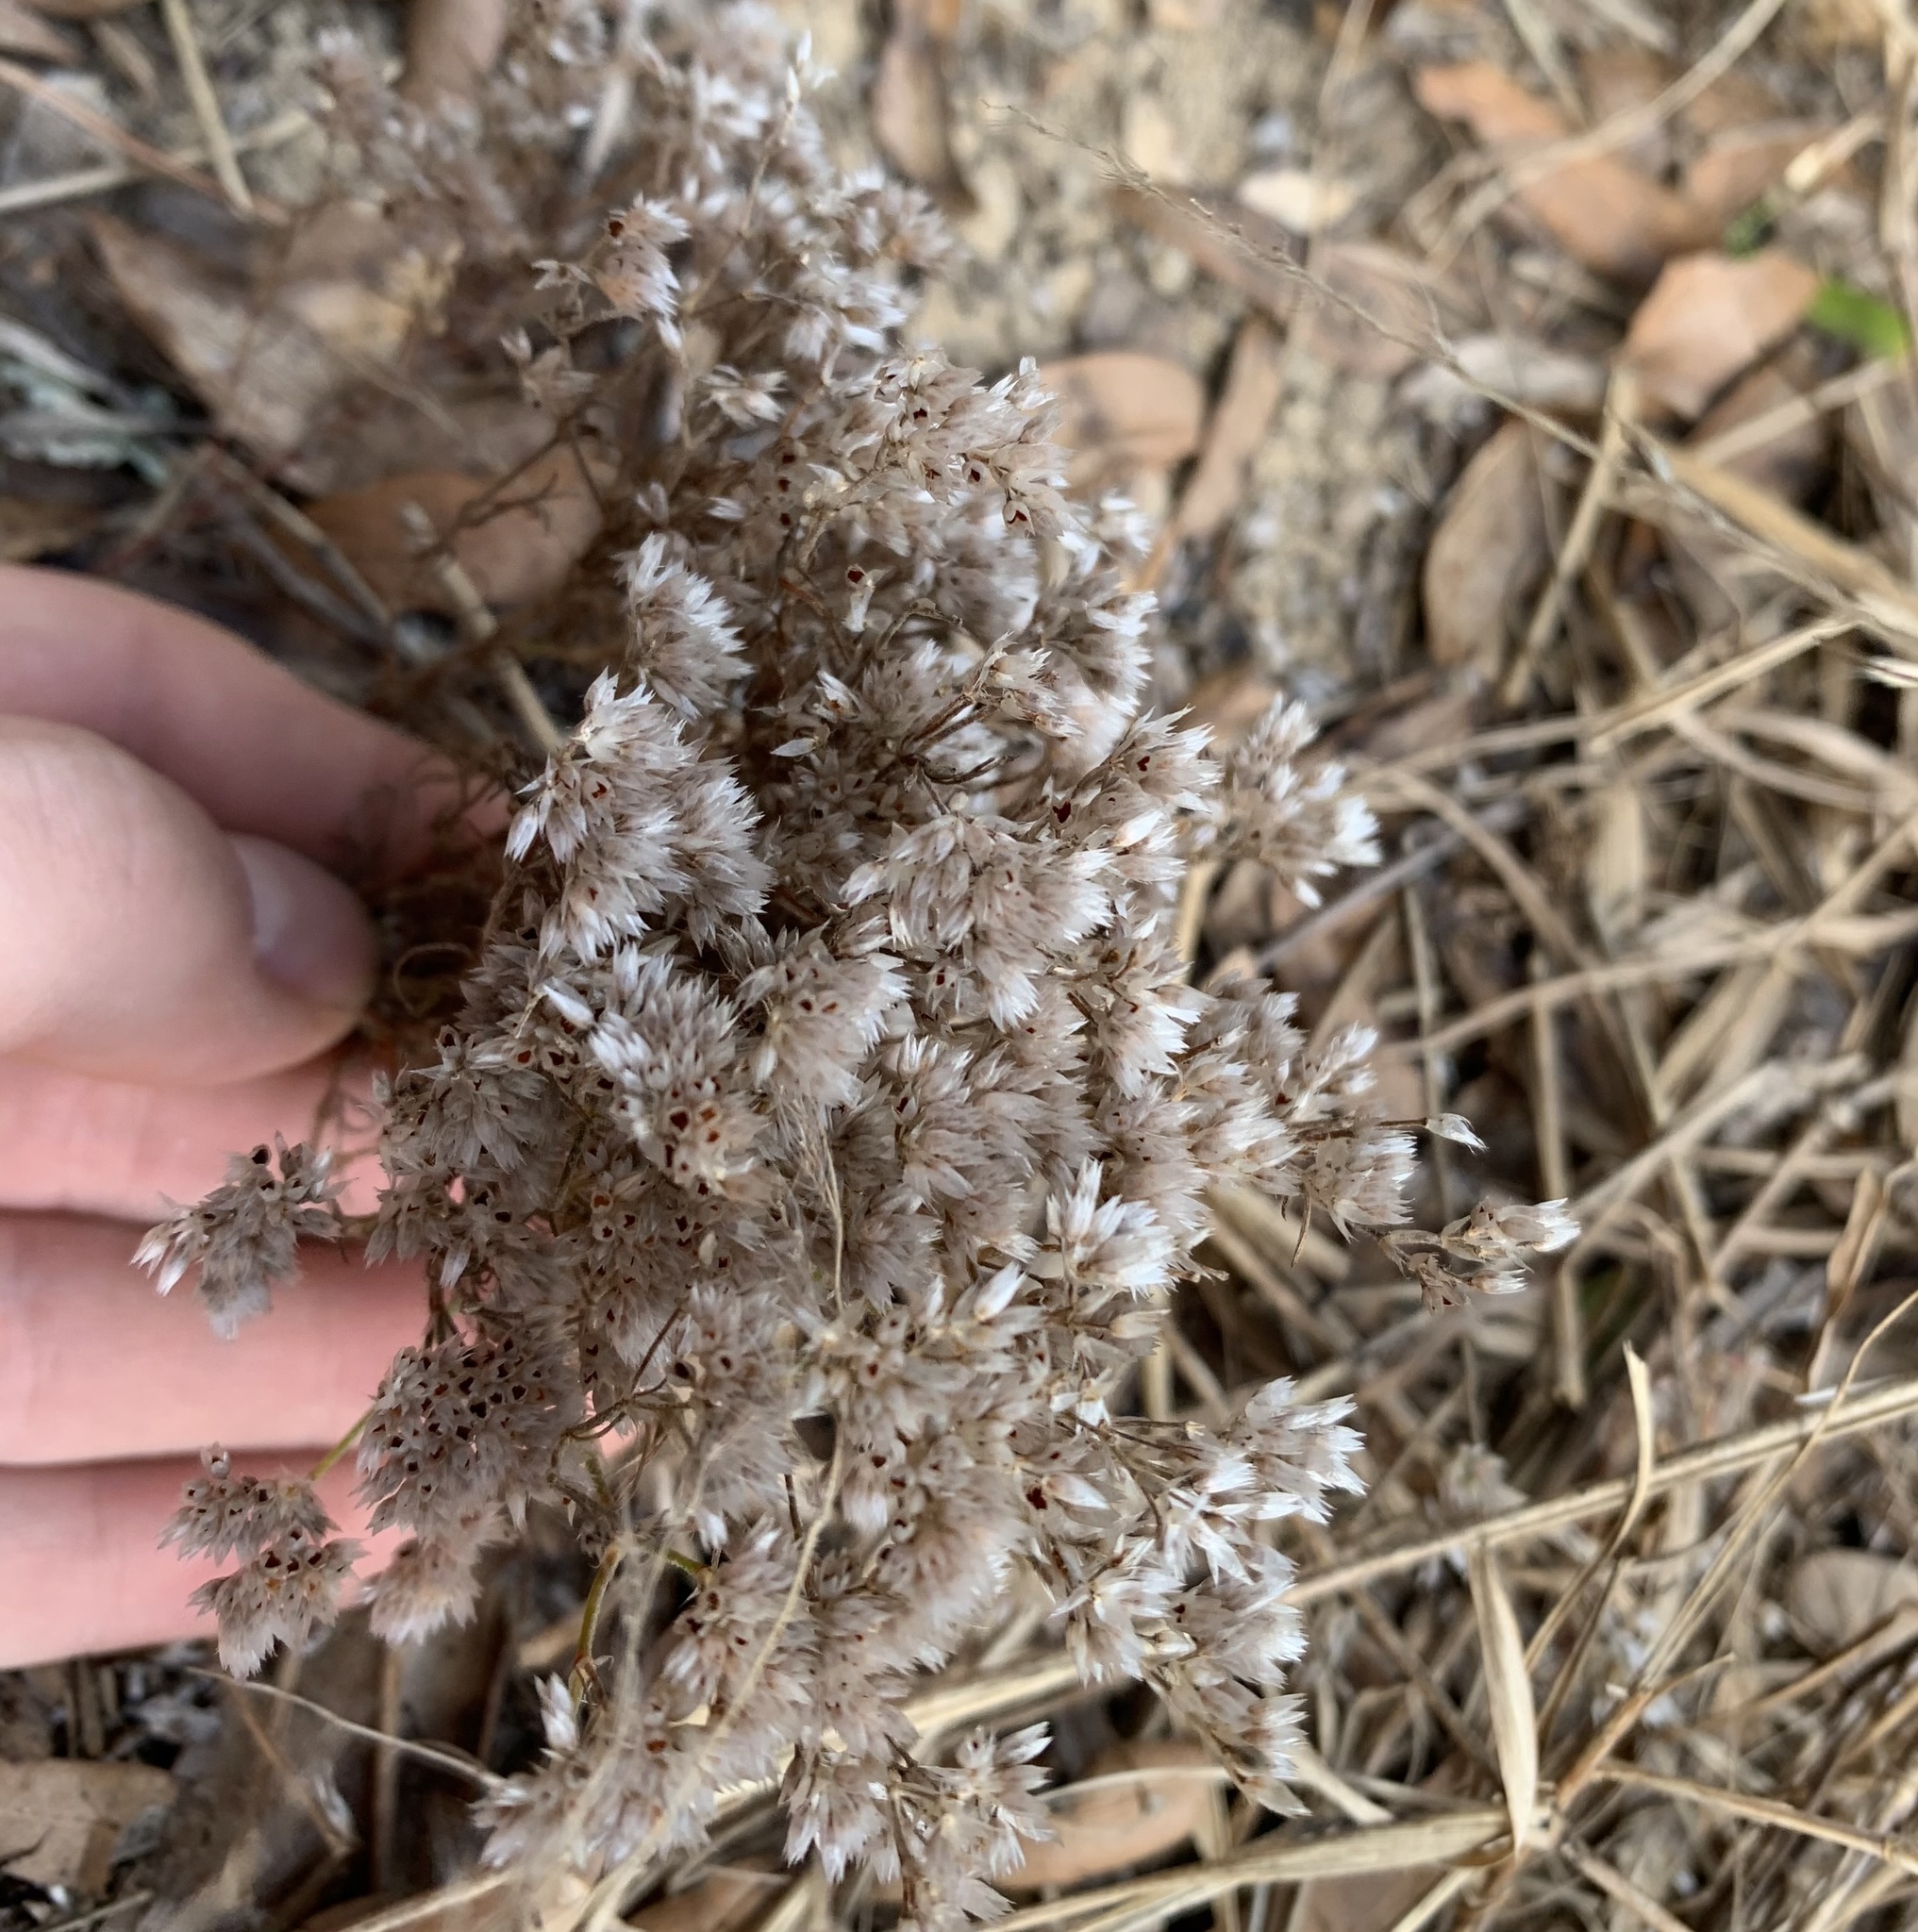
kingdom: Plantae
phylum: Tracheophyta
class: Magnoliopsida
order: Caryophyllales
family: Caryophyllaceae
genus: Polycarpaea
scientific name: Polycarpaea corymbosa
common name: Oldman's cap
